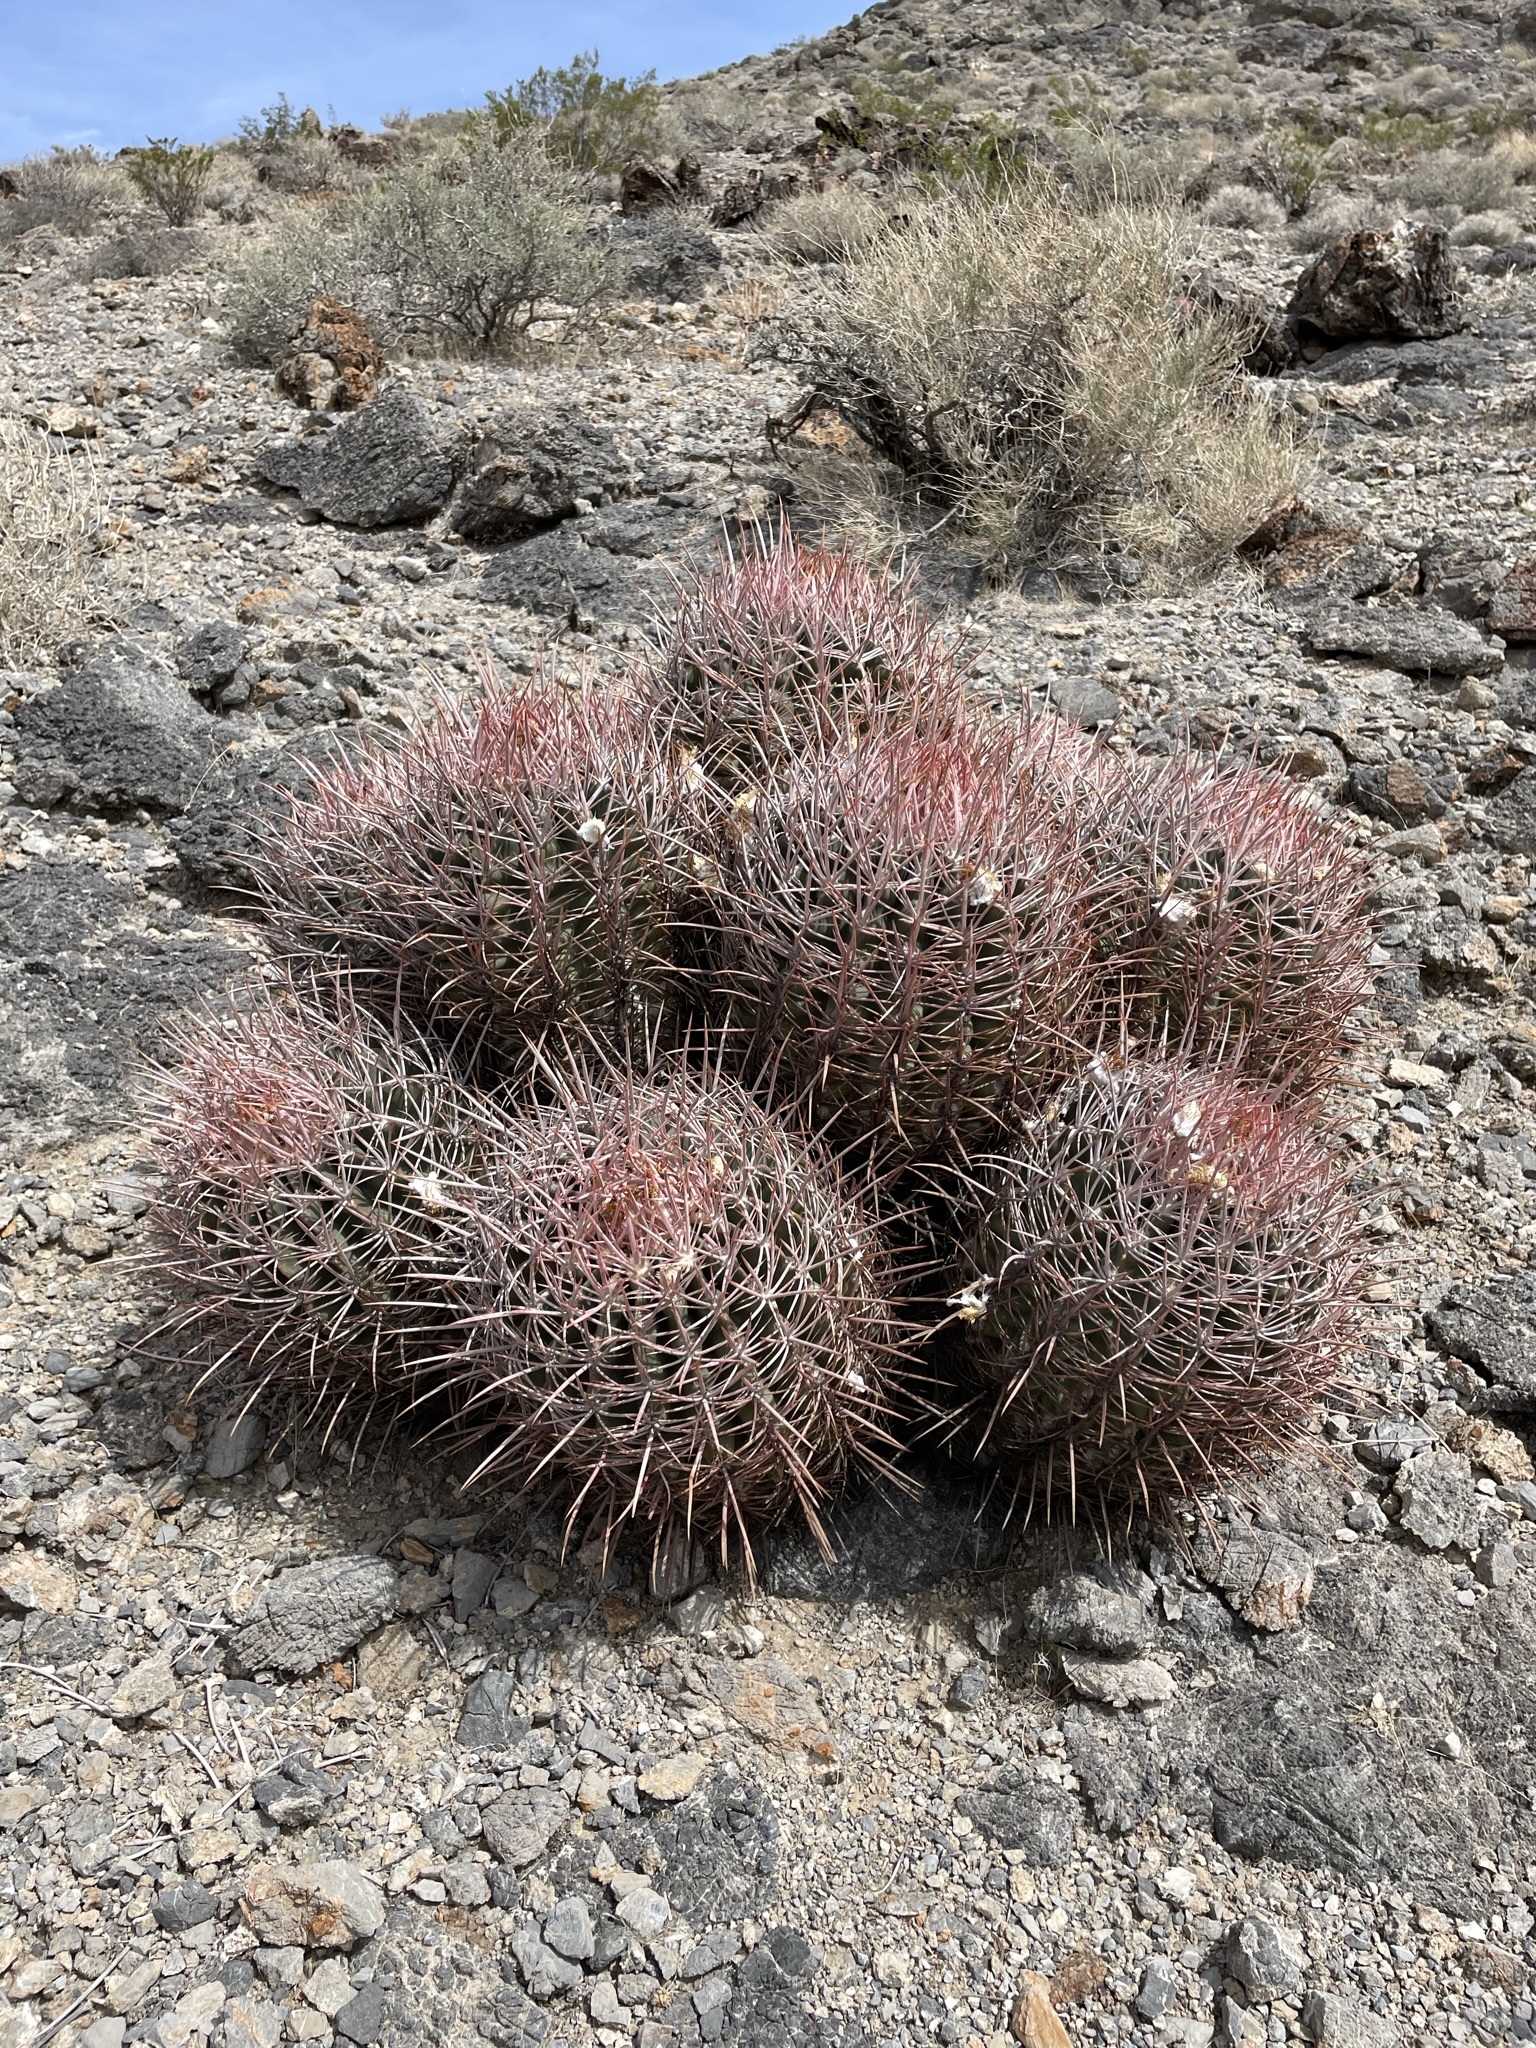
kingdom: Plantae
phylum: Tracheophyta
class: Magnoliopsida
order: Caryophyllales
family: Cactaceae
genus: Echinocactus
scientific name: Echinocactus polycephalus
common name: Cottontop cactus
